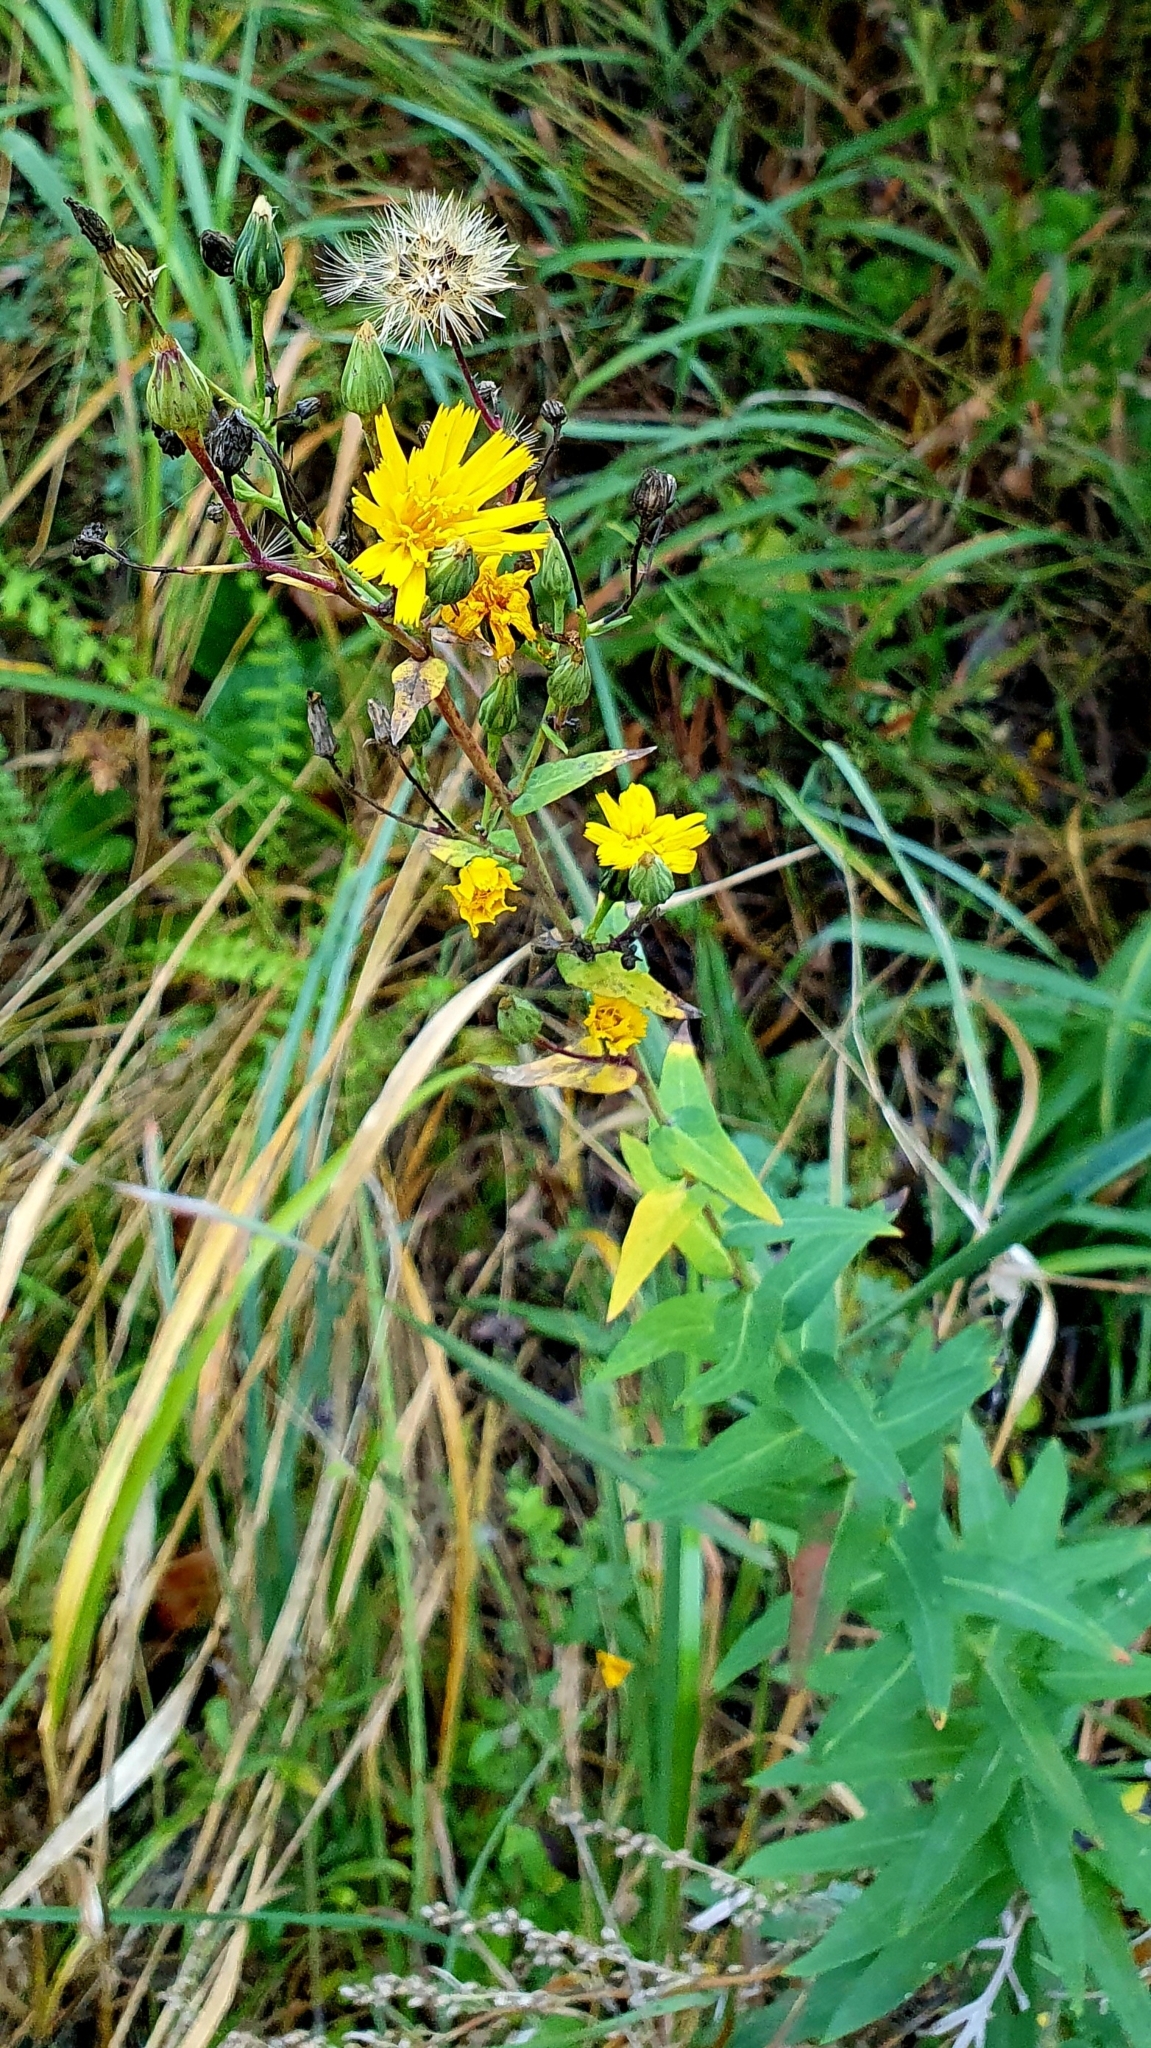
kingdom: Plantae
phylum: Tracheophyta
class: Magnoliopsida
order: Asterales
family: Asteraceae
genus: Hieracium
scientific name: Hieracium robustum
